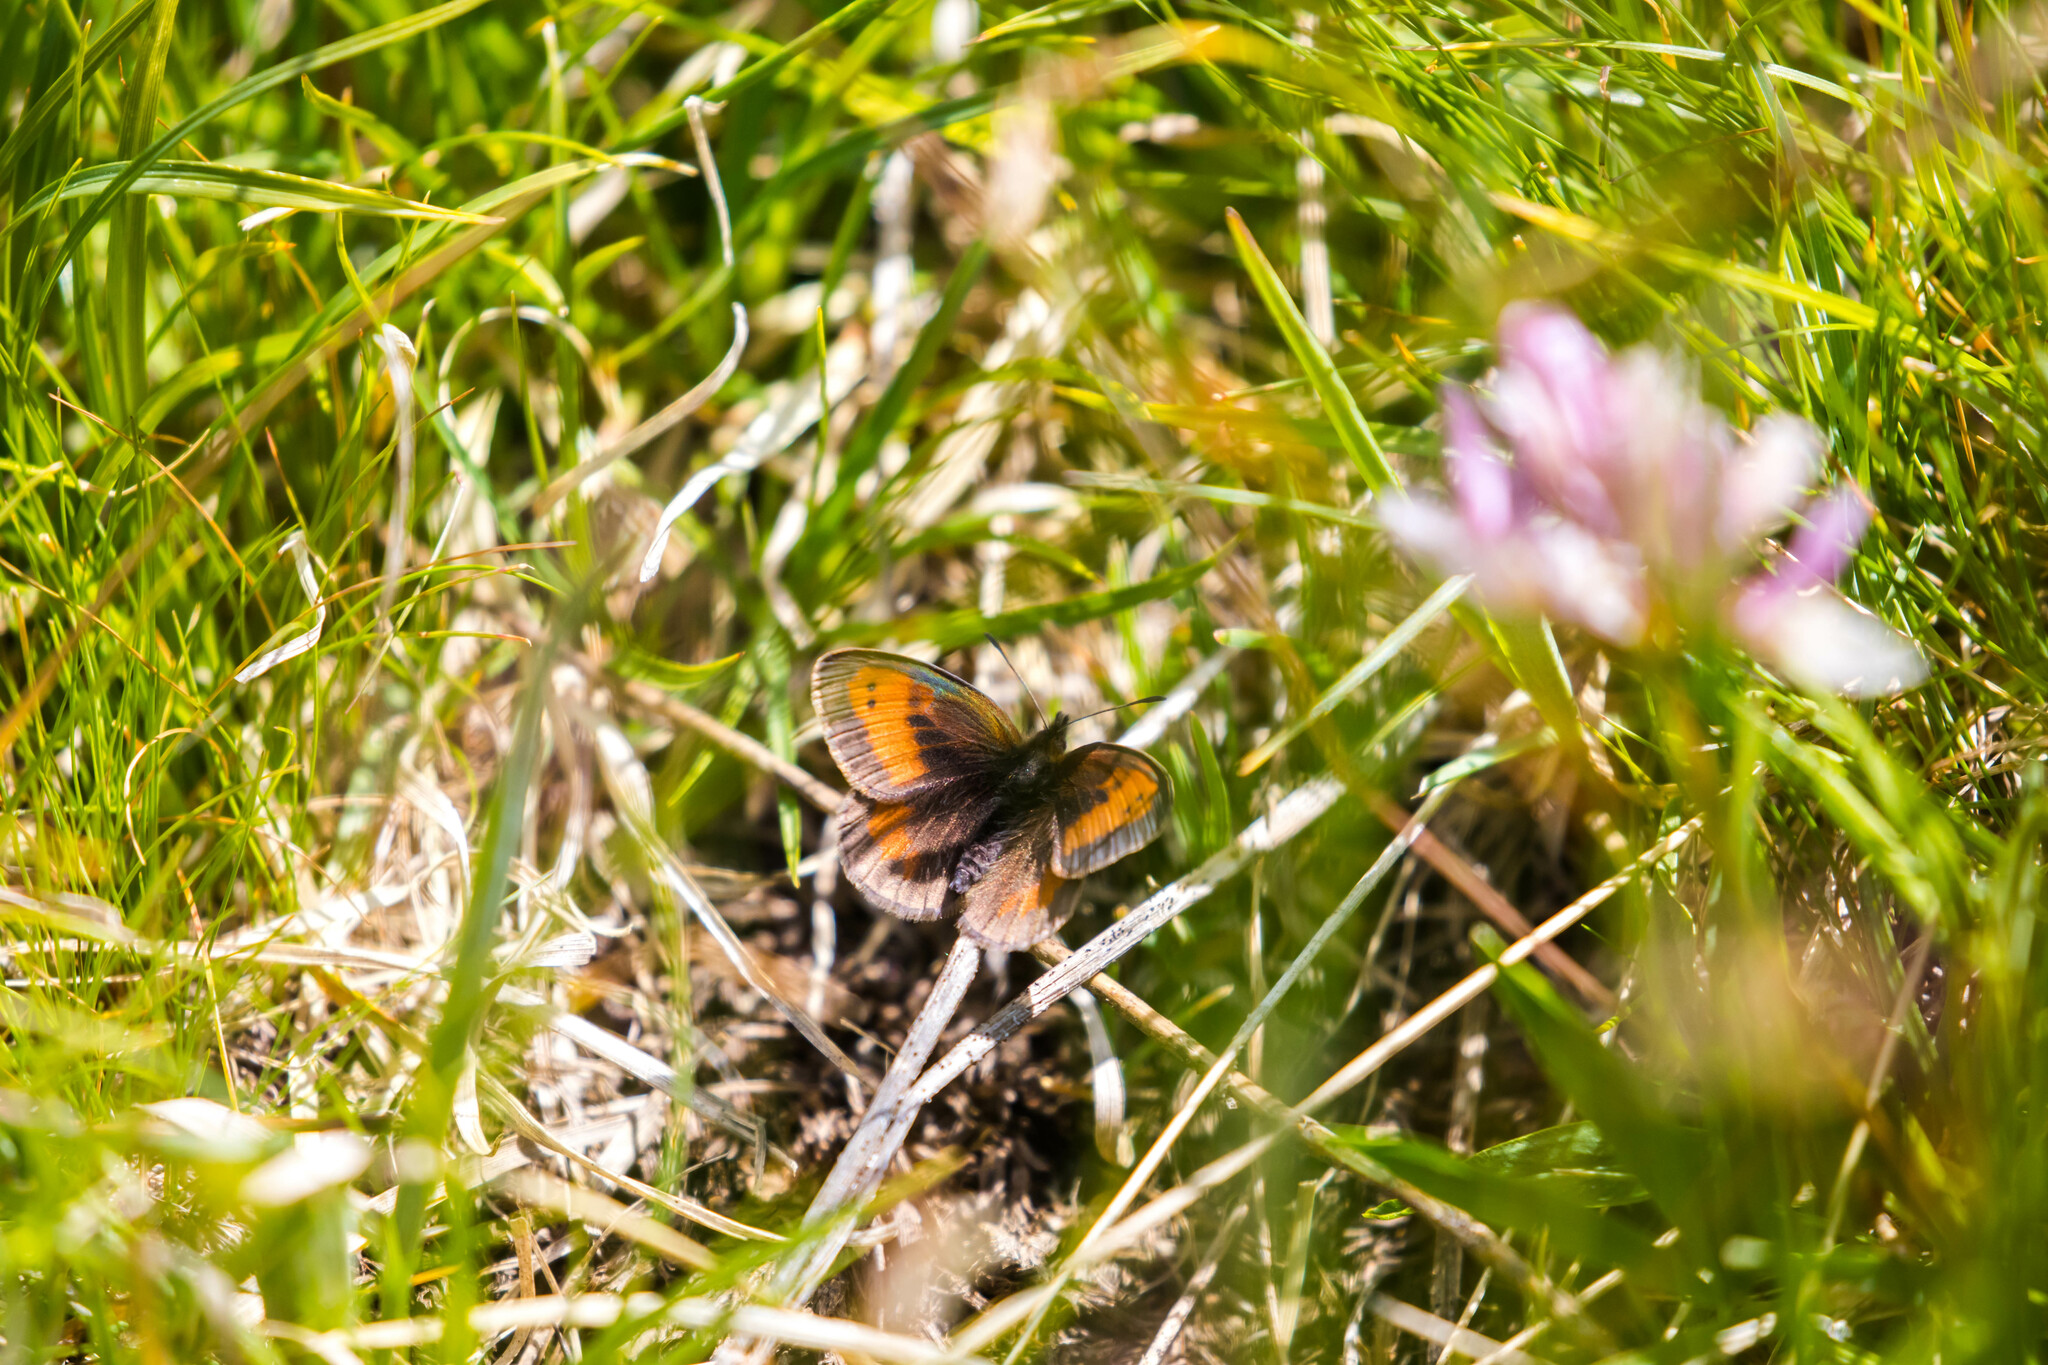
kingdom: Animalia
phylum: Arthropoda
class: Insecta
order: Lepidoptera
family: Nymphalidae
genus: Erebia
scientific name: Erebia mnestra
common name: Mnestra’s ringlet
